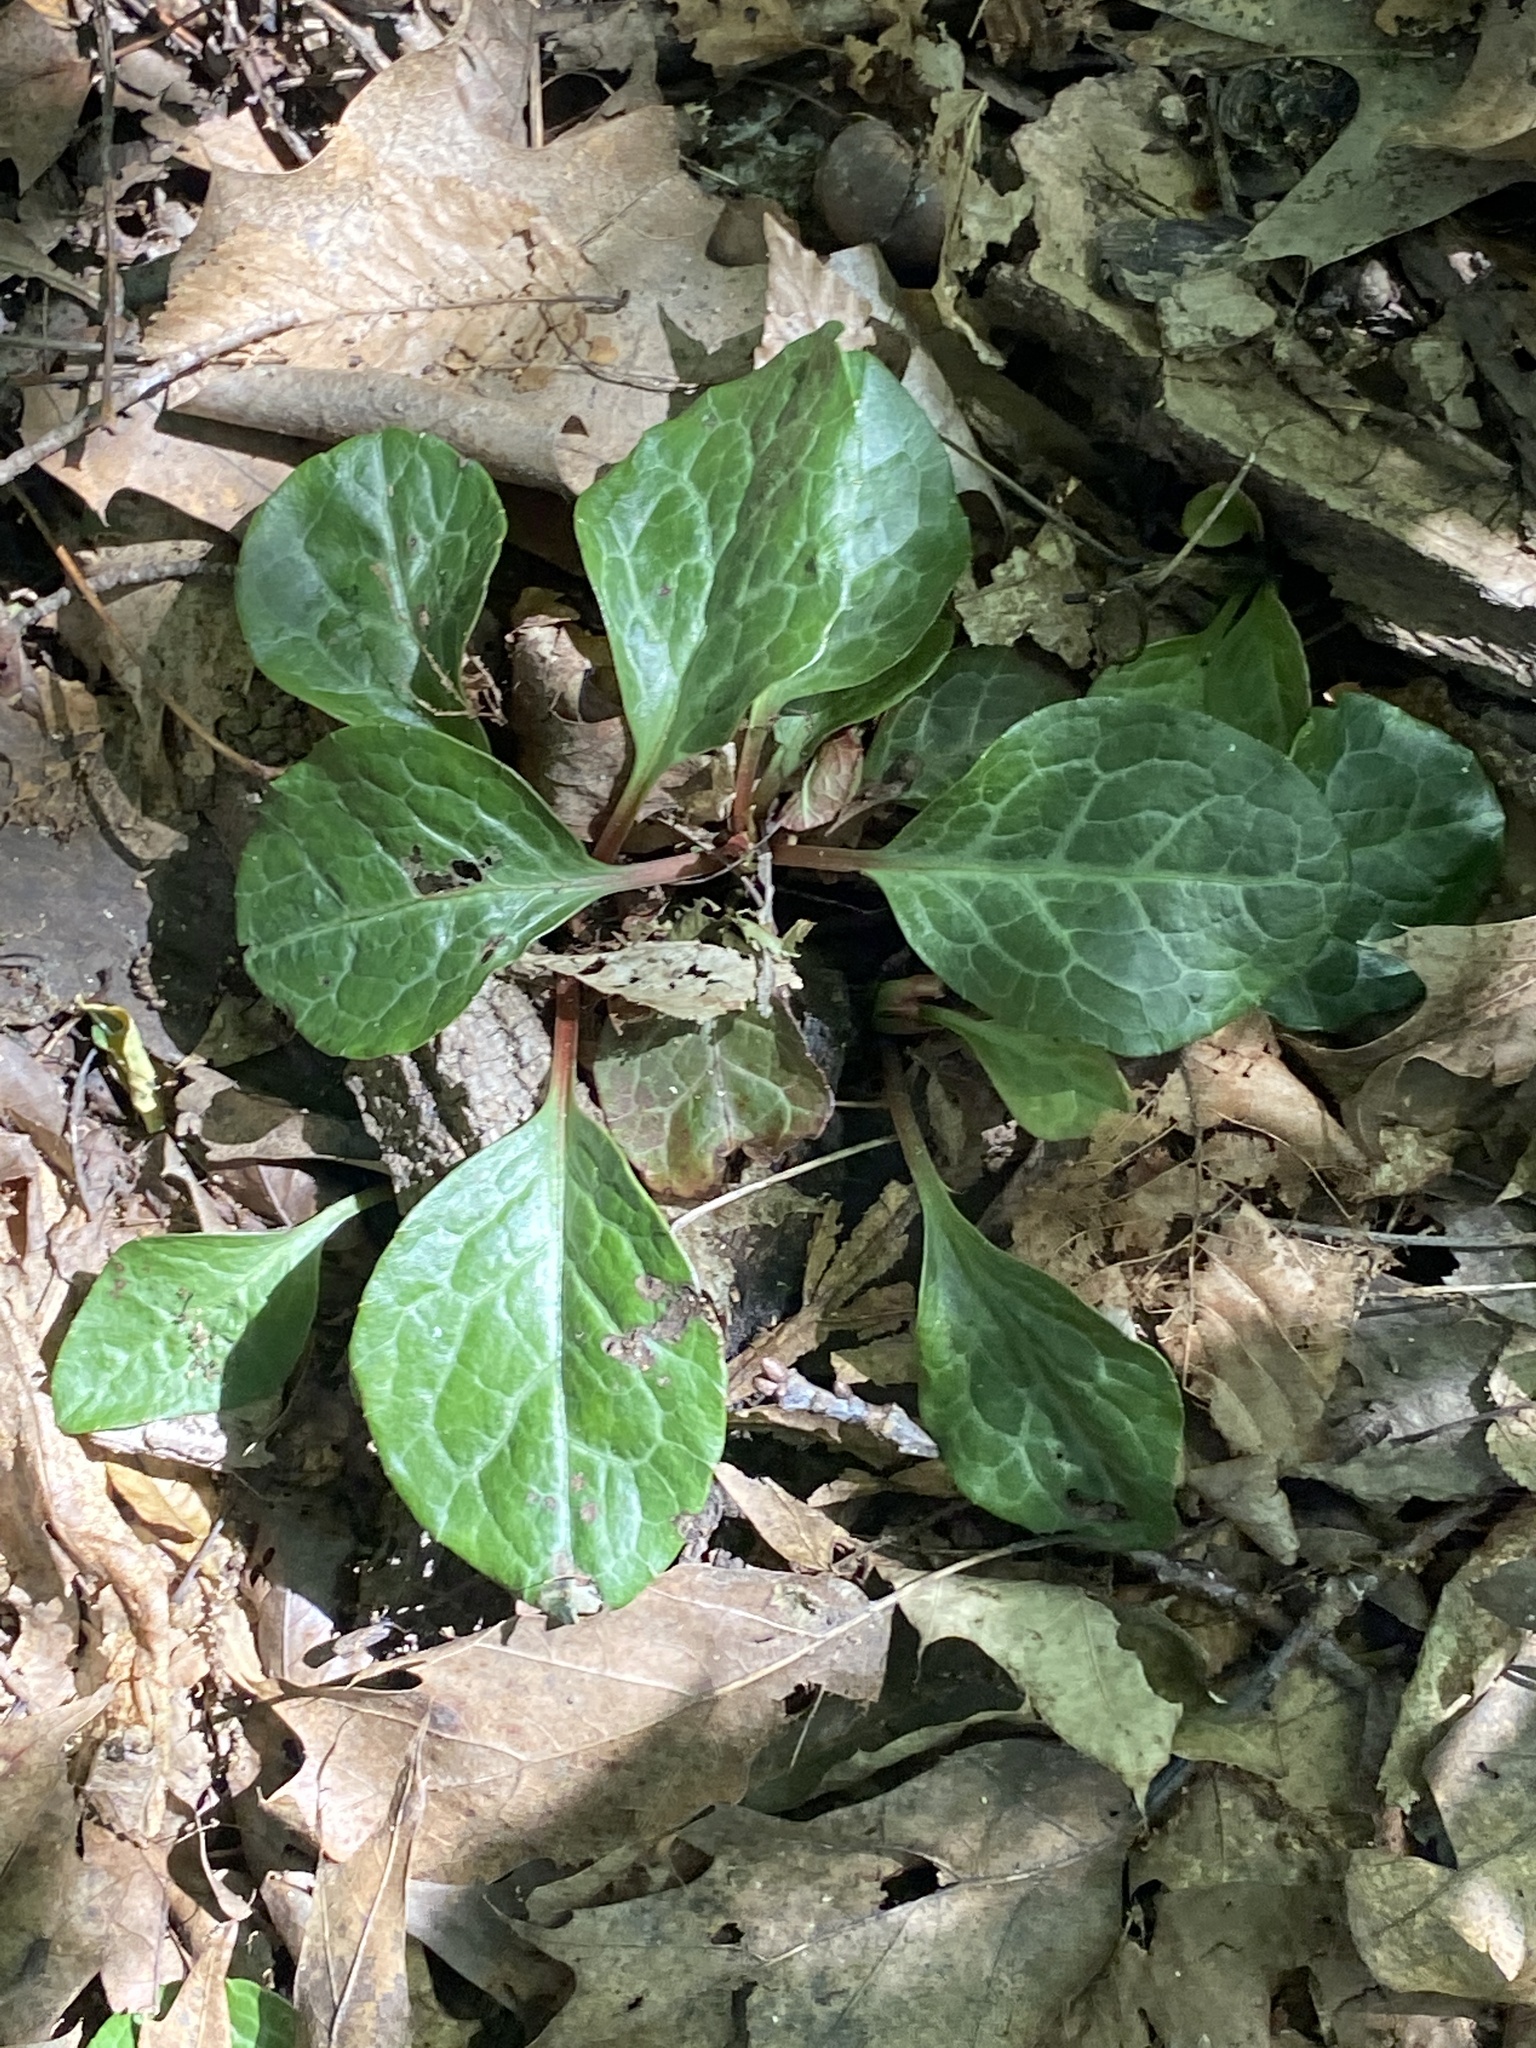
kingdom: Plantae
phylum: Tracheophyta
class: Magnoliopsida
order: Ericales
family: Ericaceae
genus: Pyrola
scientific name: Pyrola americana
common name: American wintergreen
